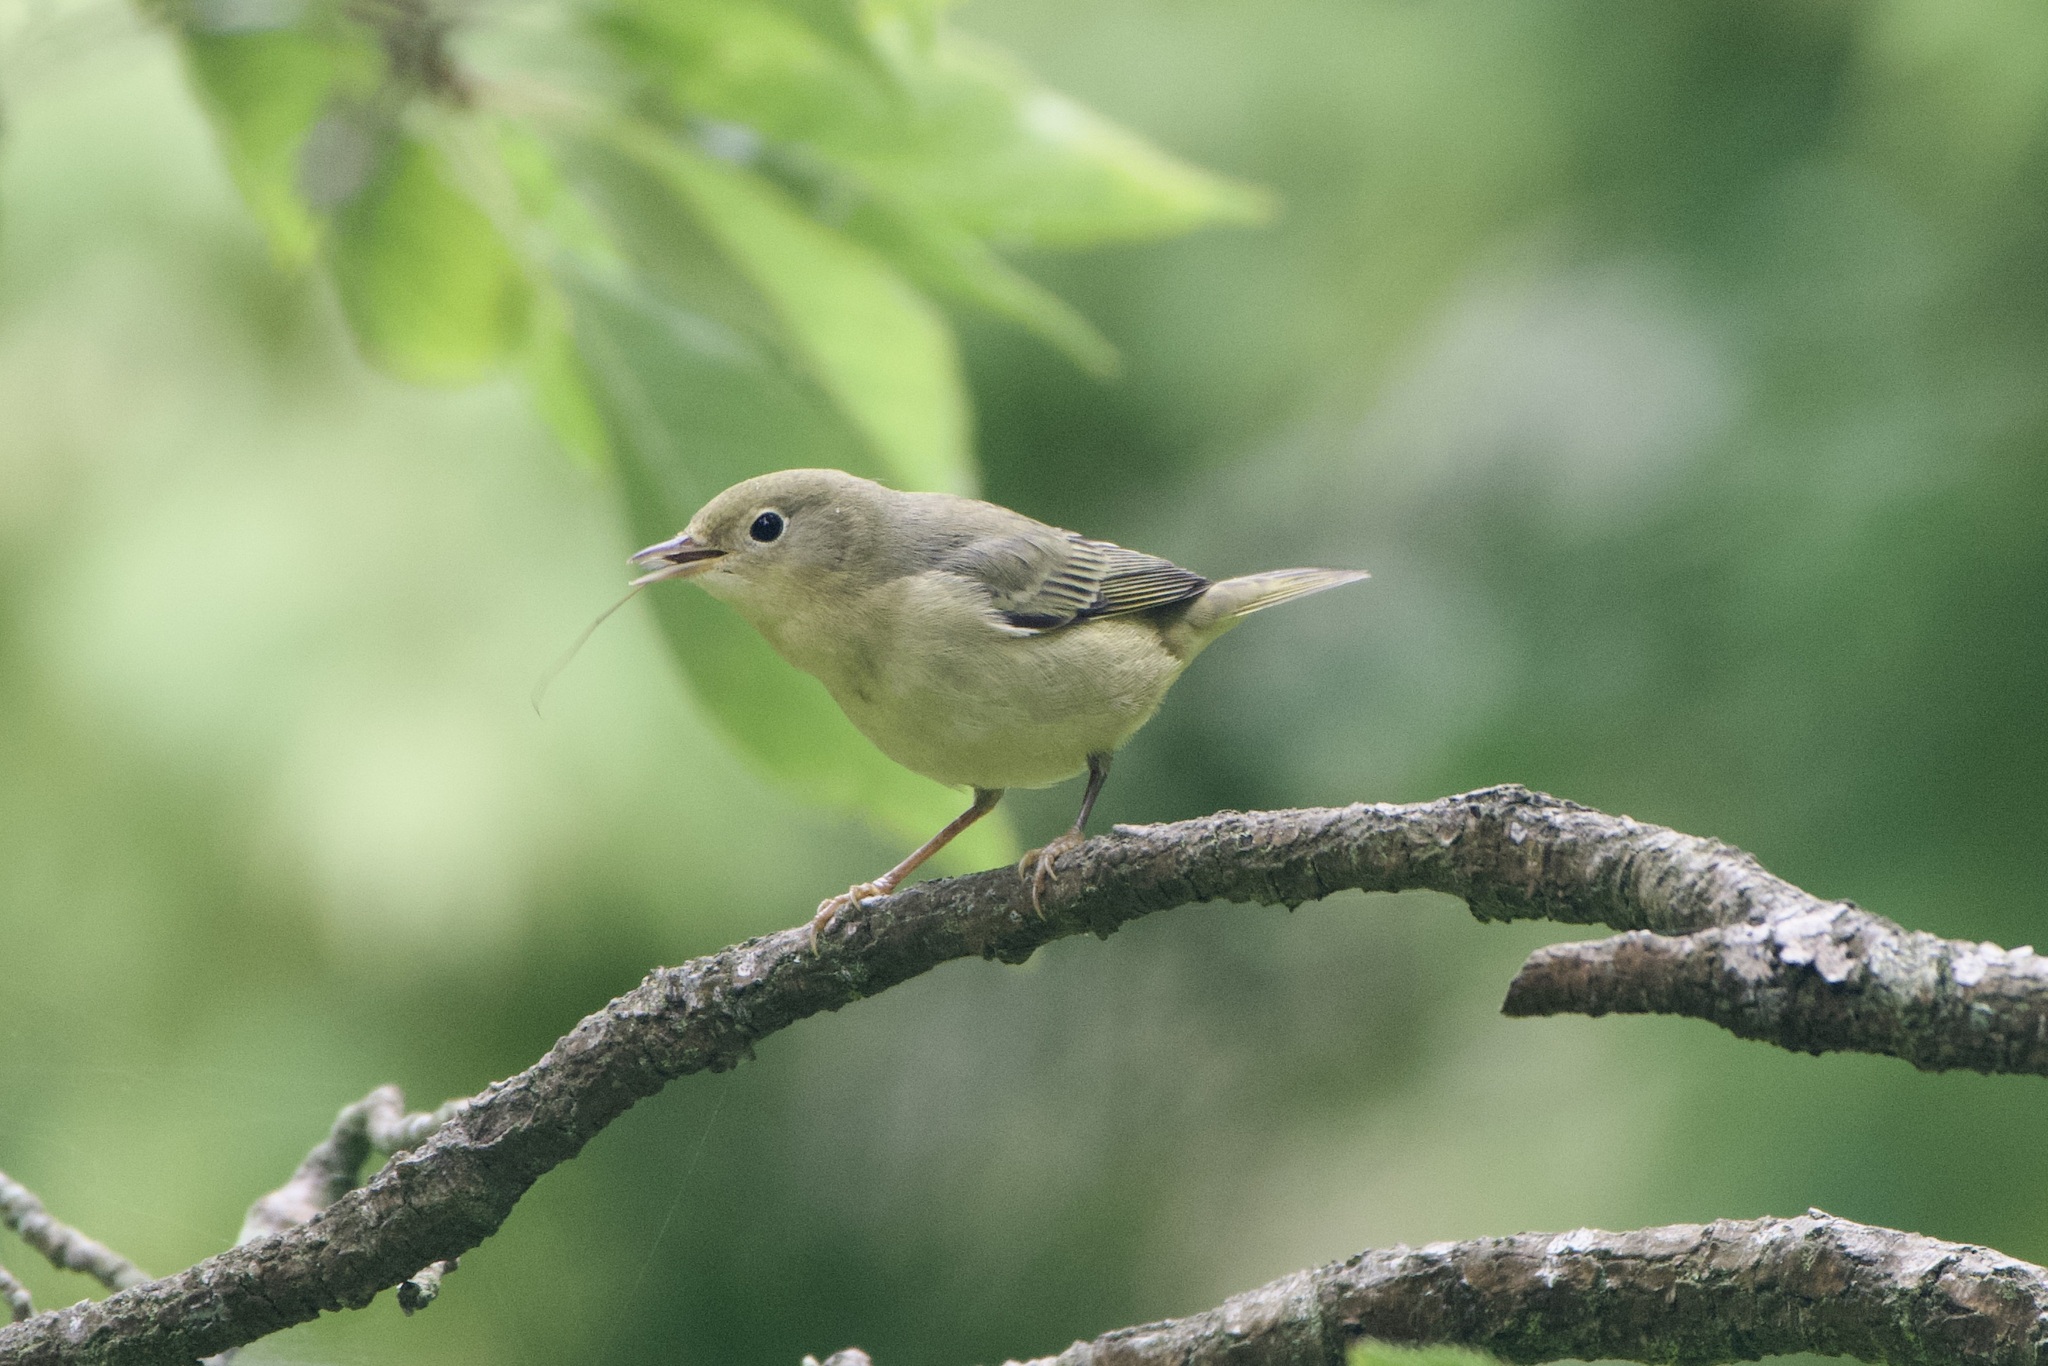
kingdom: Animalia
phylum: Chordata
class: Aves
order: Passeriformes
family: Parulidae
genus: Setophaga
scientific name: Setophaga petechia
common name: Yellow warbler
